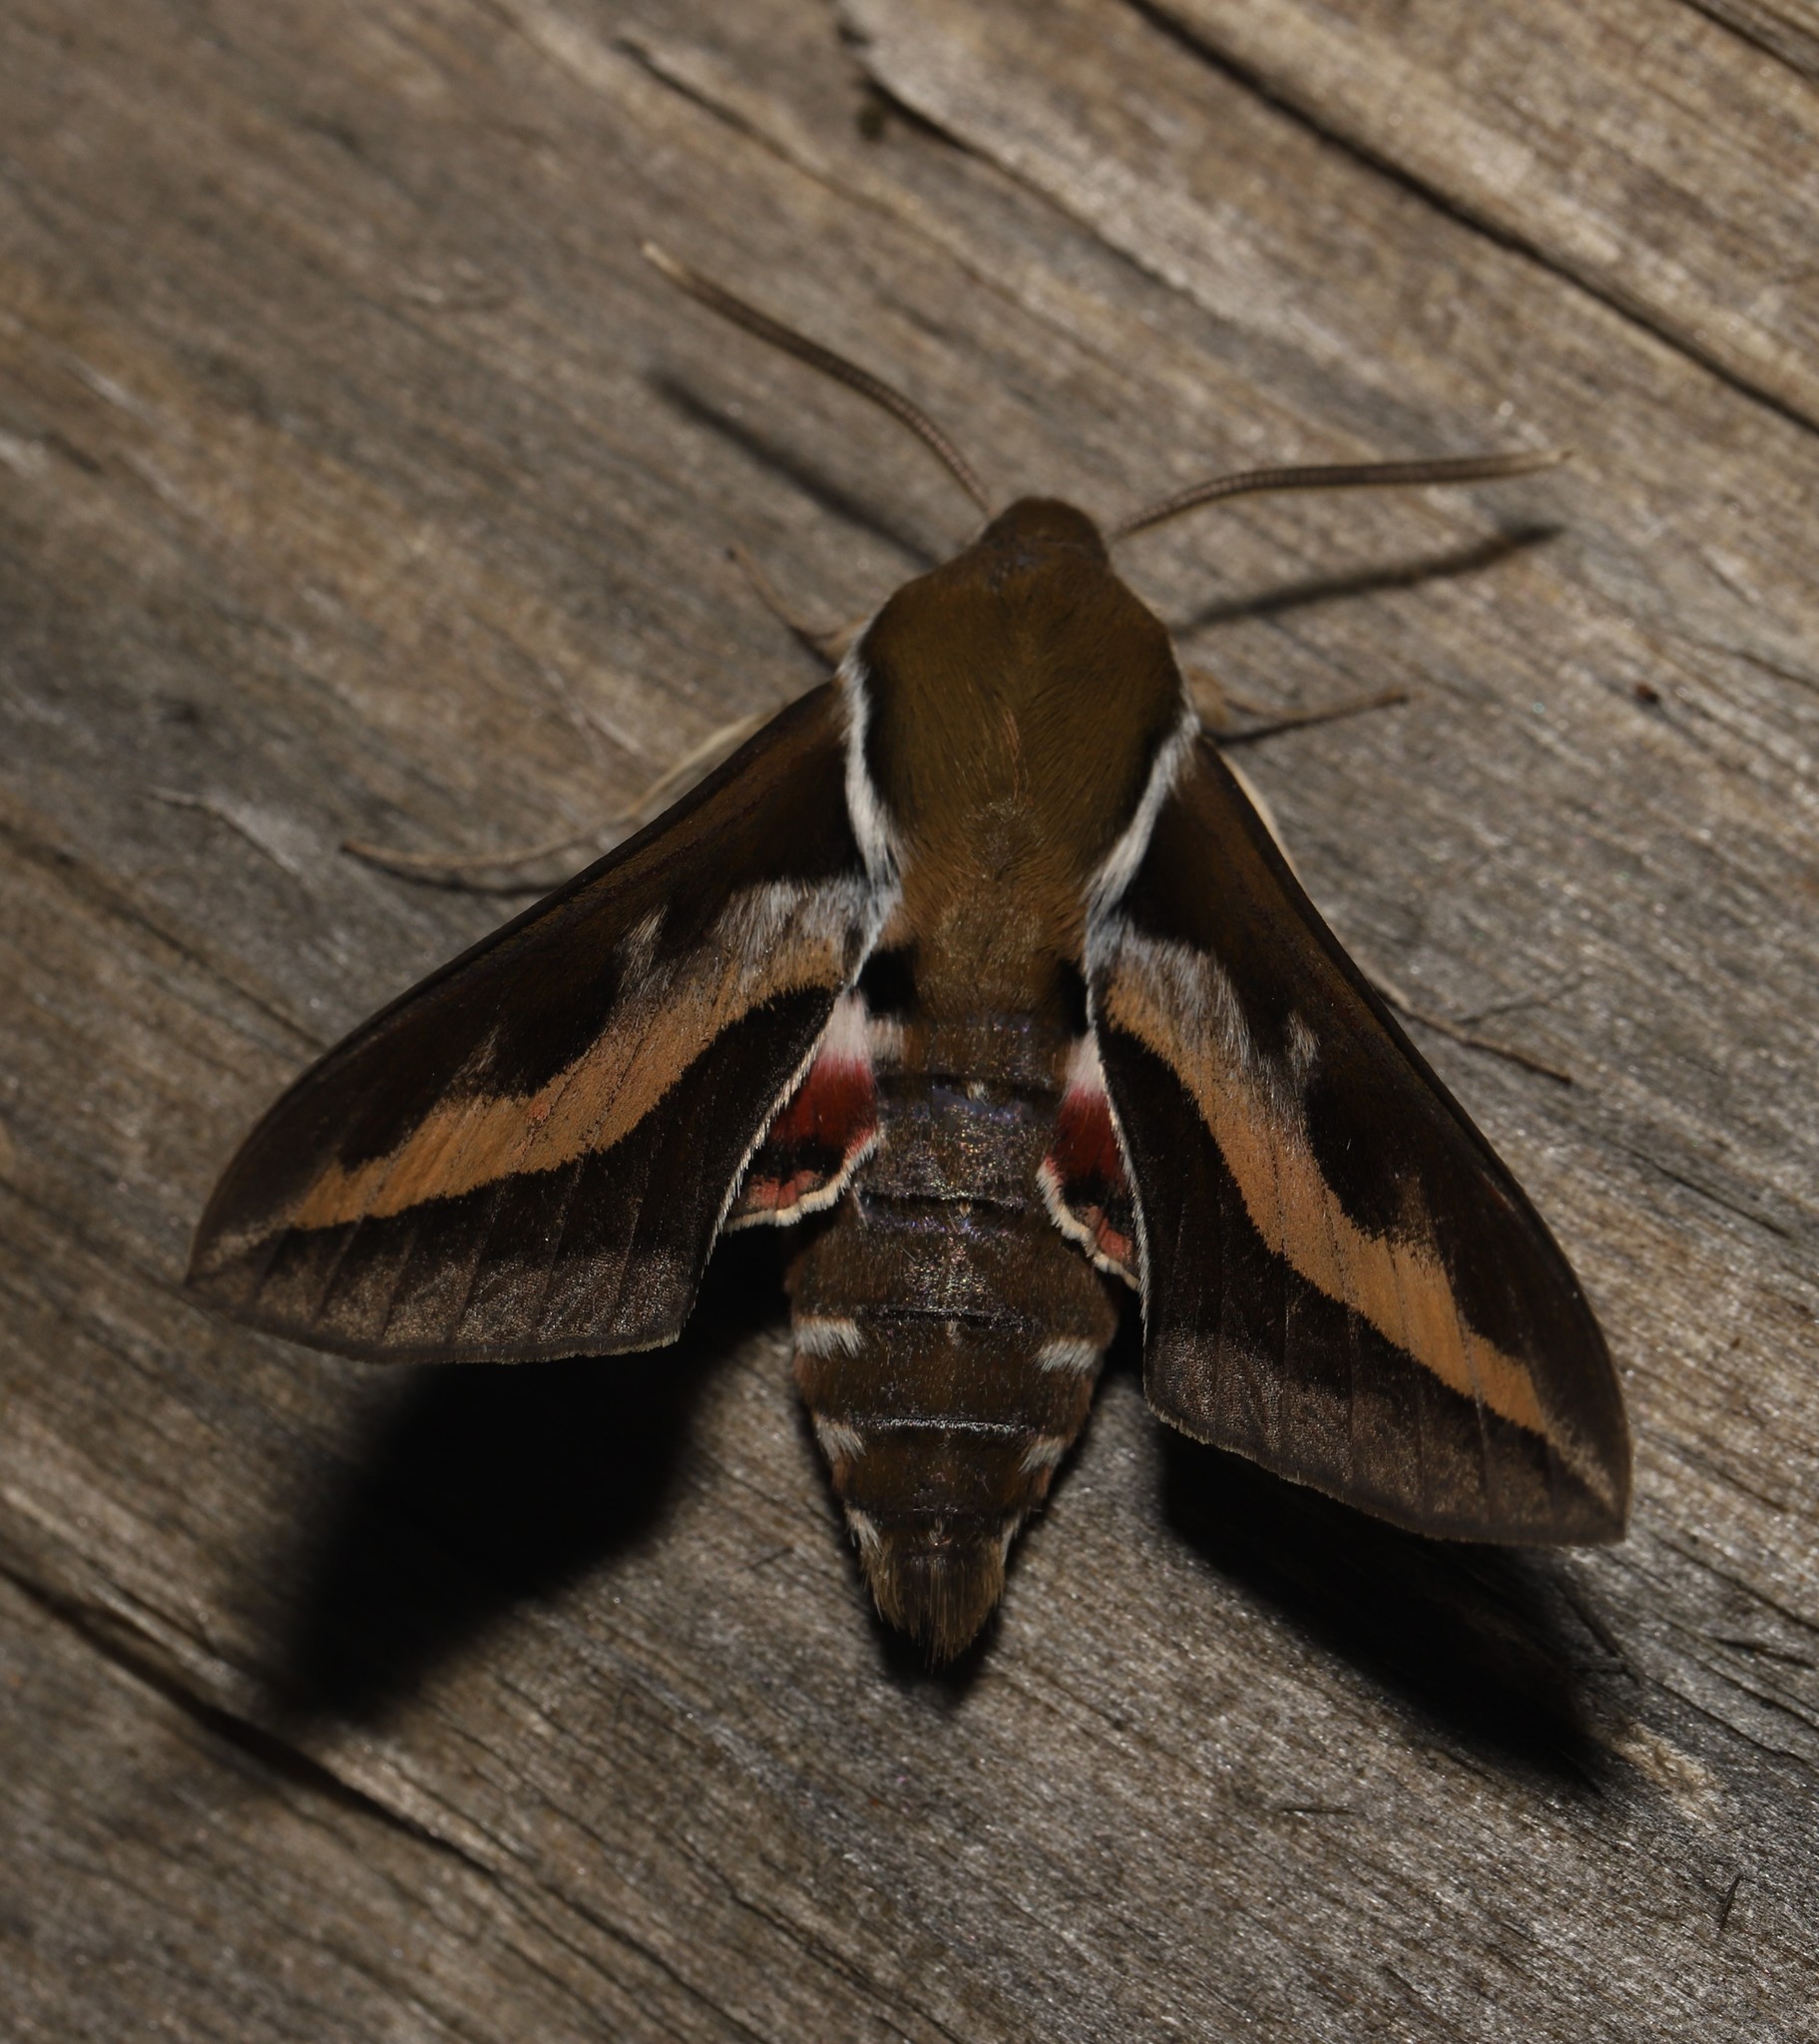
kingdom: Animalia
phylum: Arthropoda
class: Insecta
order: Lepidoptera
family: Sphingidae
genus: Hyles
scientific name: Hyles gallii
